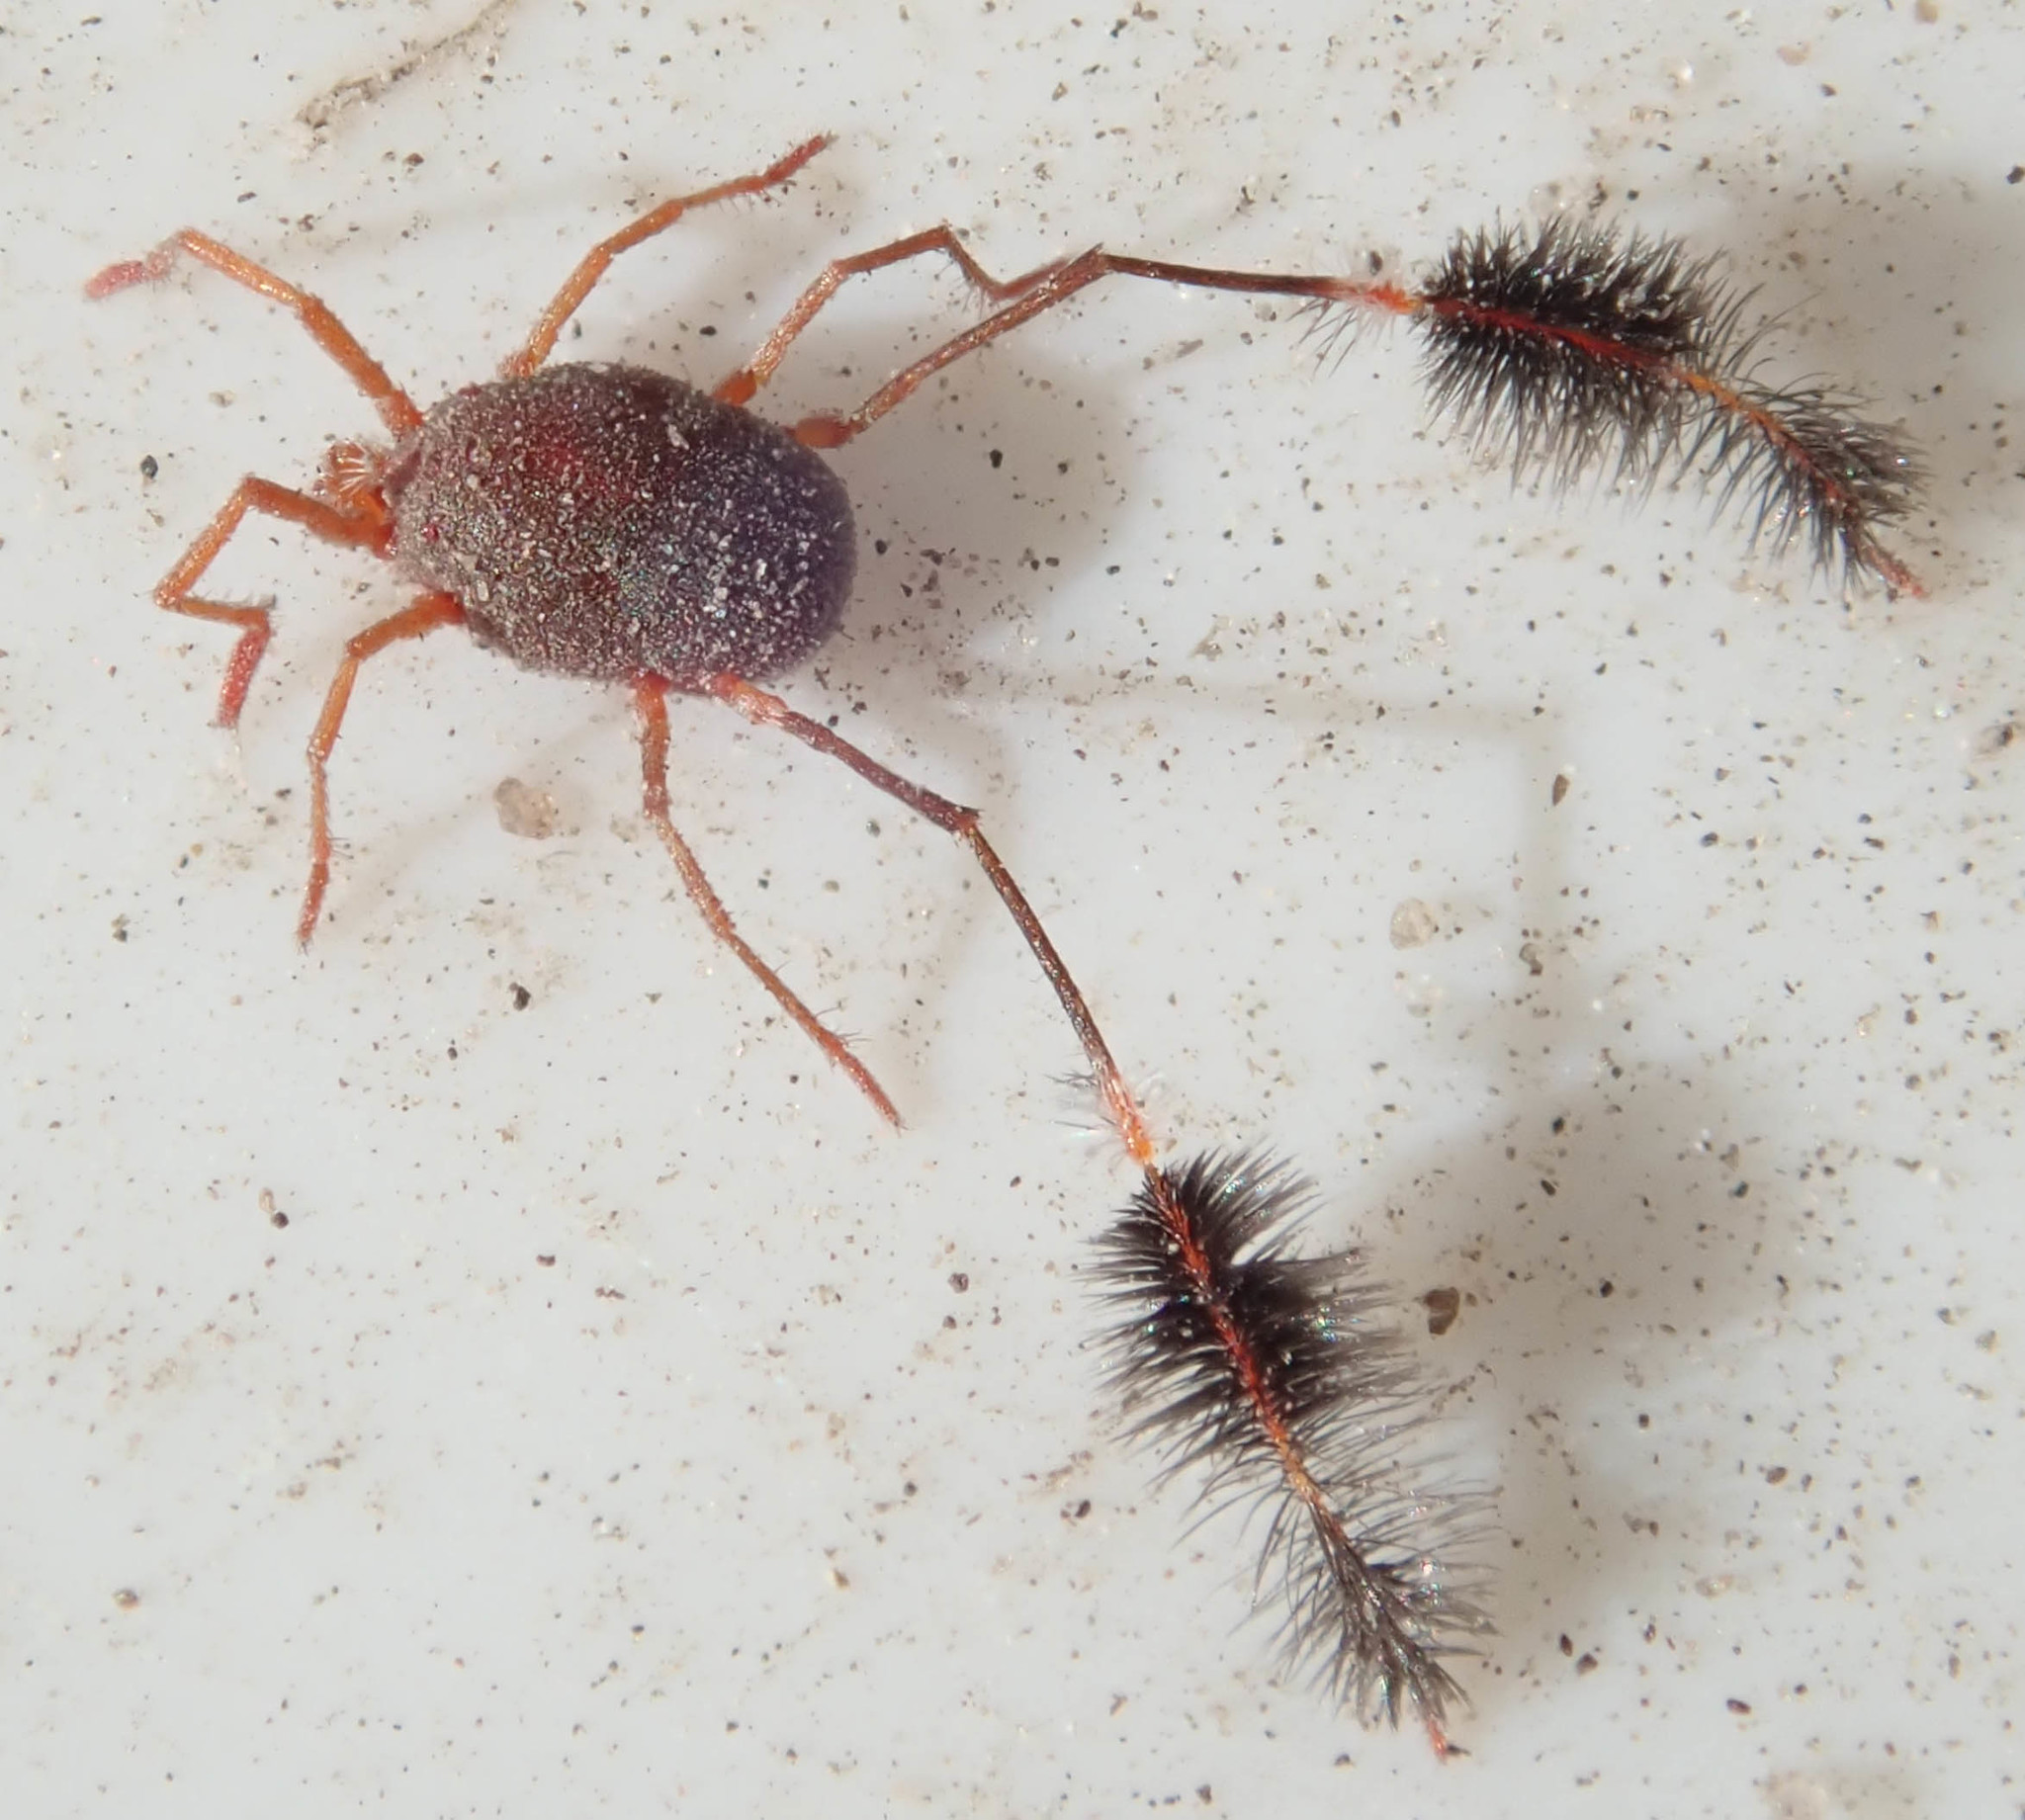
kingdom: Animalia
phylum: Arthropoda
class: Arachnida
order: Trombidiformes
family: Erythraeidae
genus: Eatoniana
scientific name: Eatoniana namaquensis
